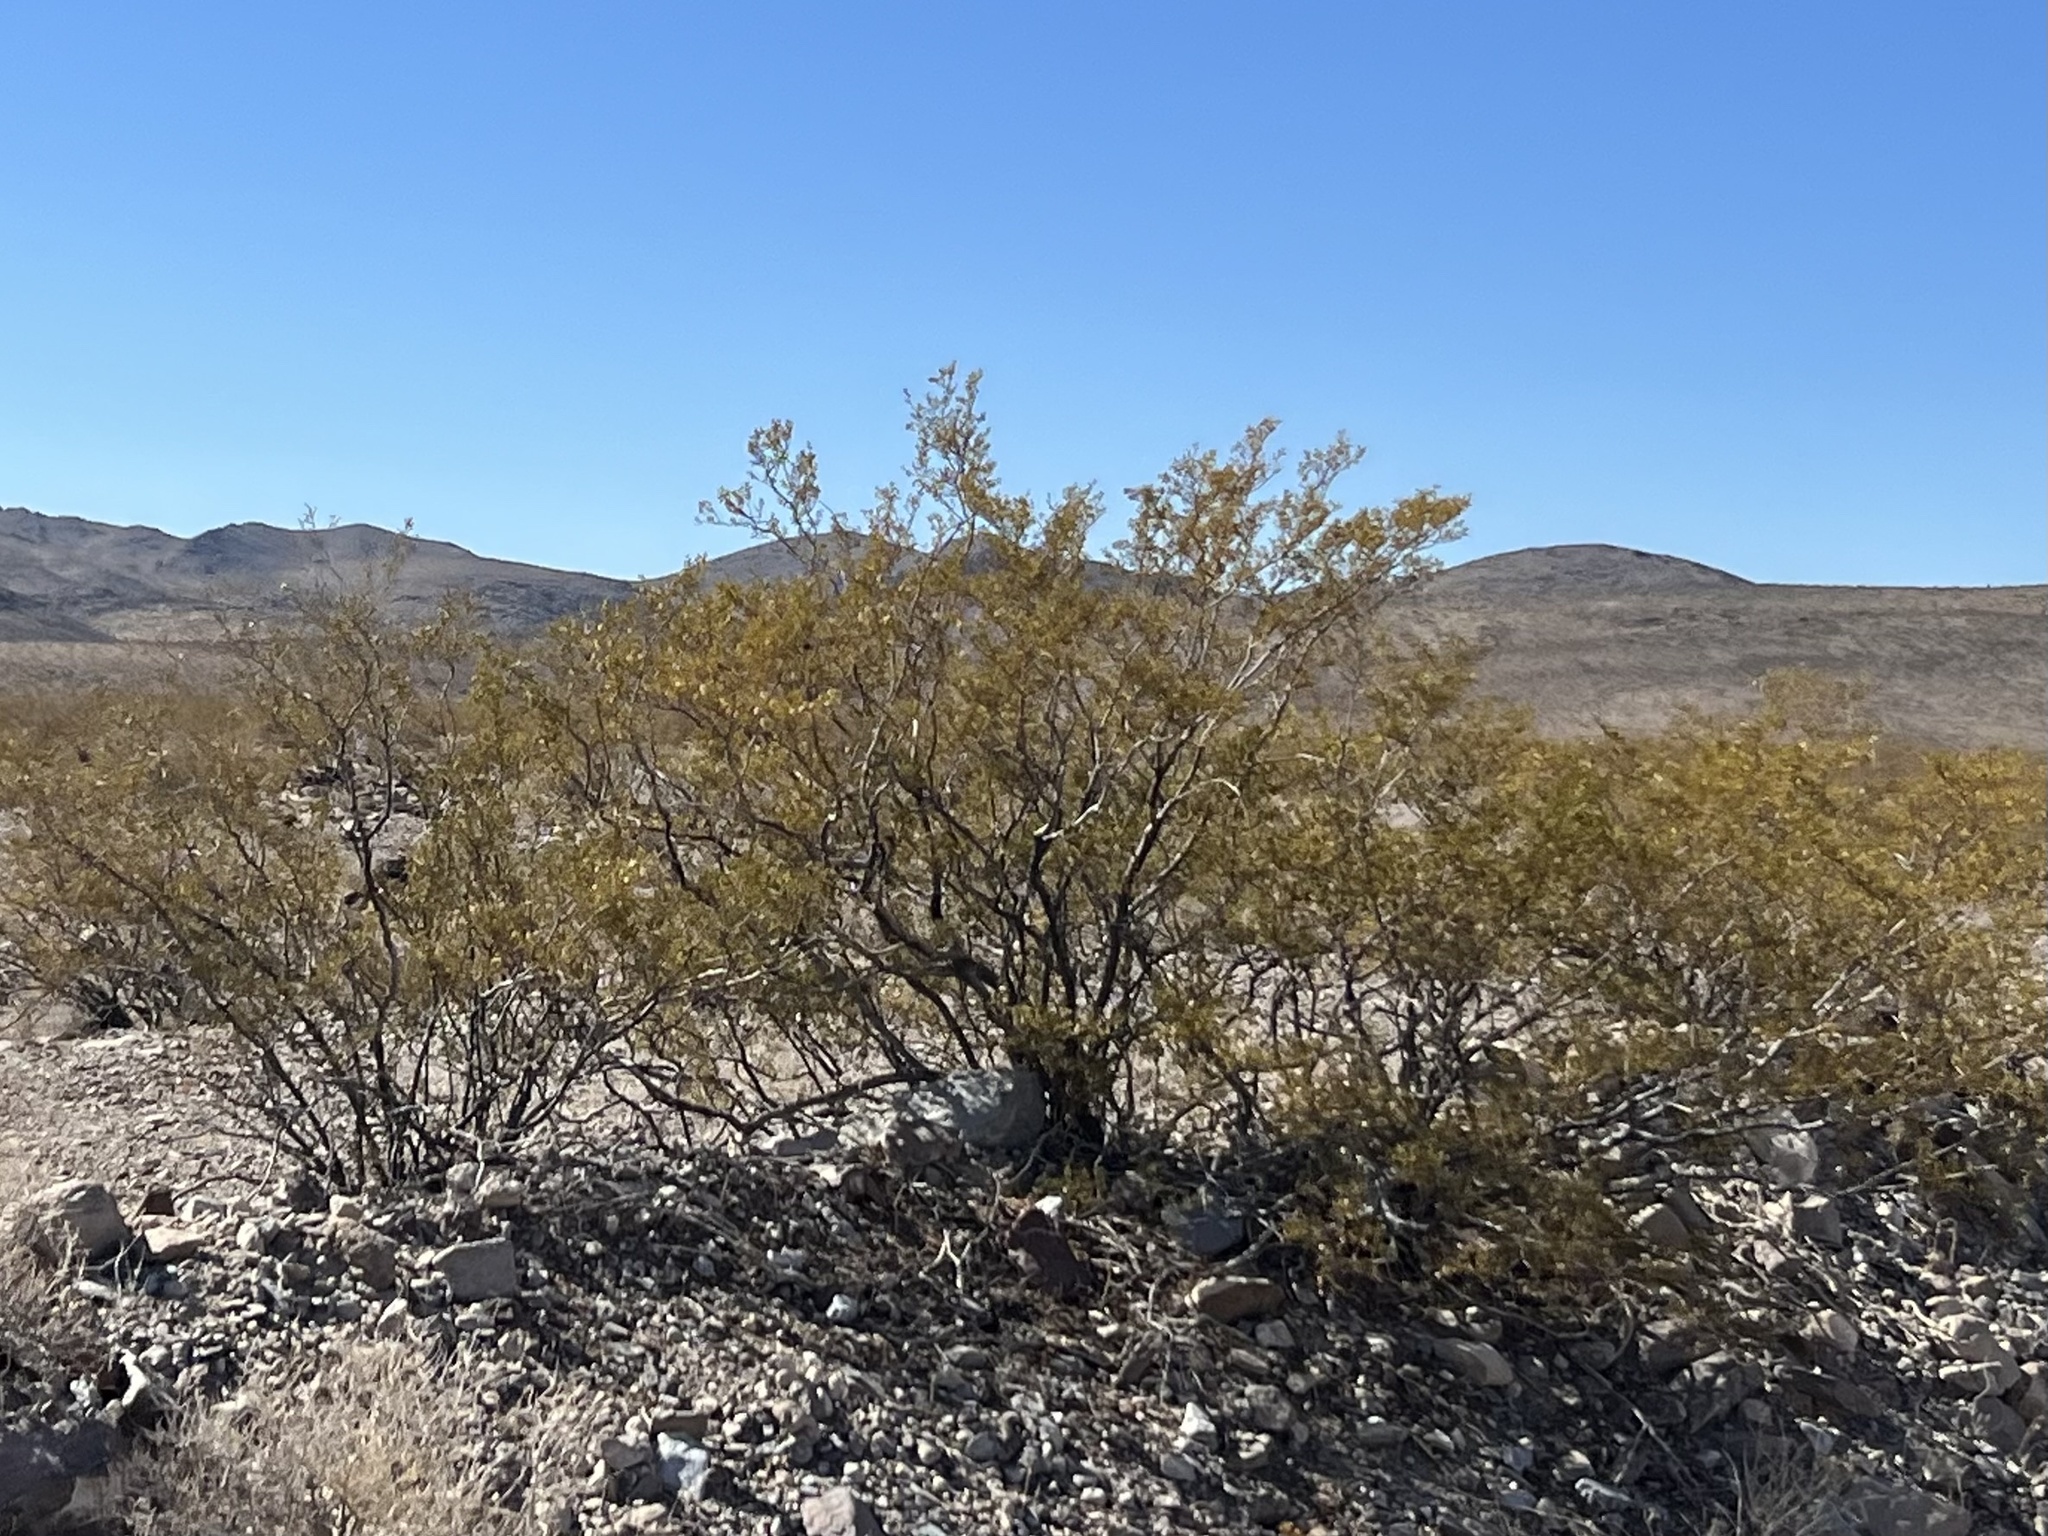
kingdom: Plantae
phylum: Tracheophyta
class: Magnoliopsida
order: Zygophyllales
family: Zygophyllaceae
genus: Larrea
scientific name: Larrea tridentata
